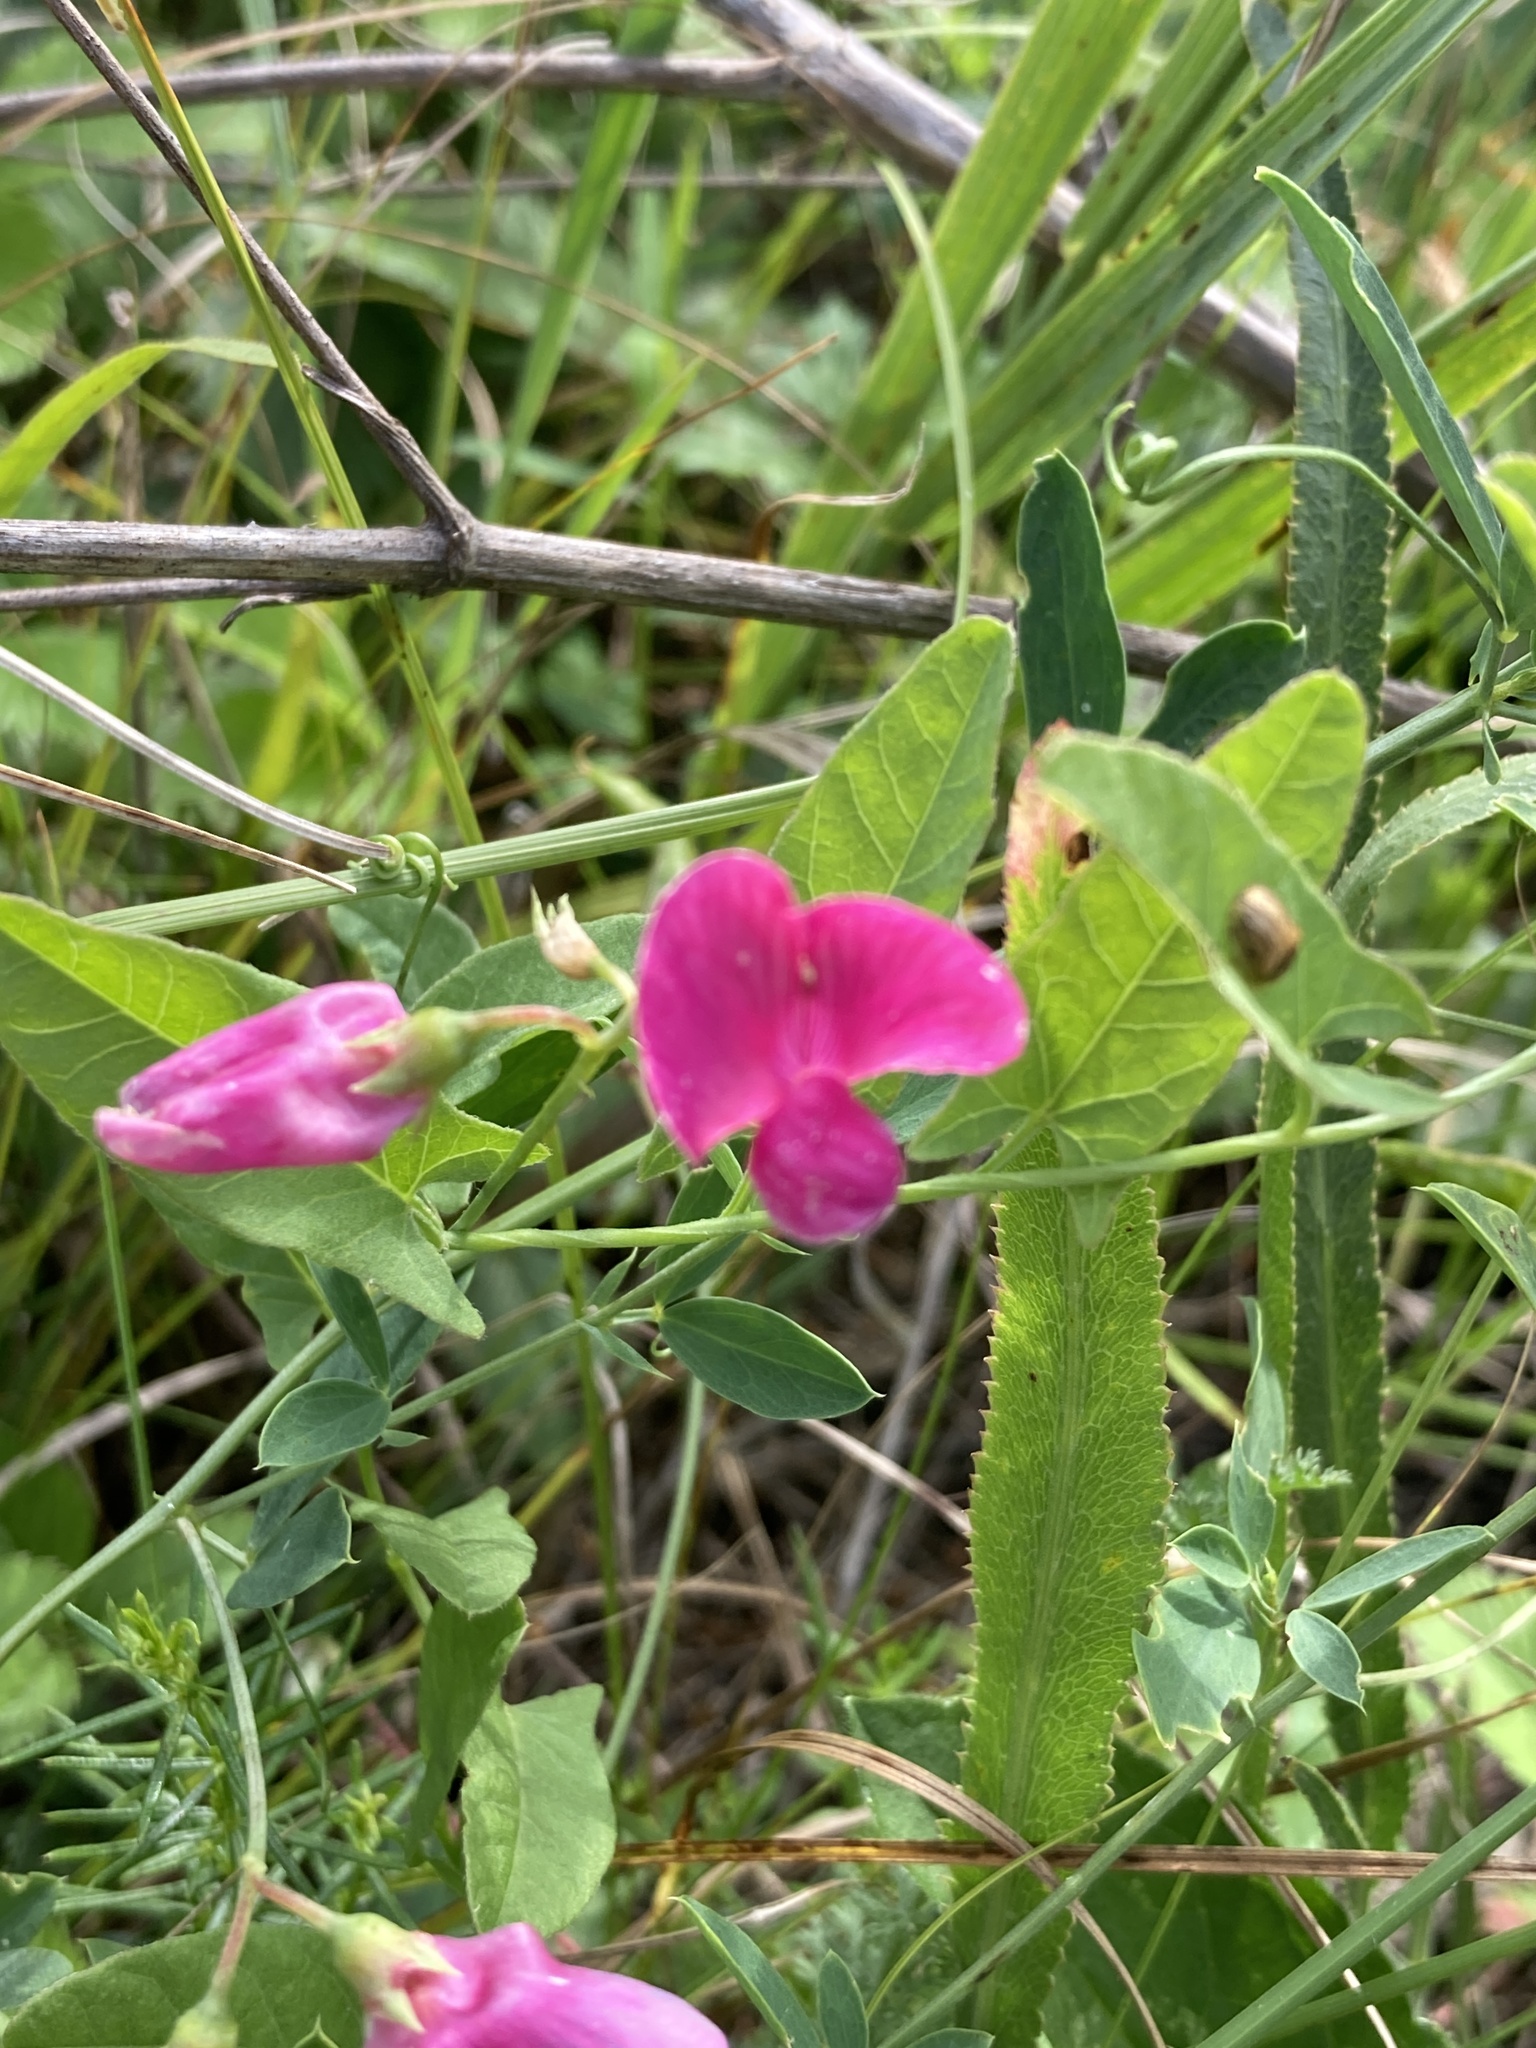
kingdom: Plantae
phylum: Tracheophyta
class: Magnoliopsida
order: Fabales
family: Fabaceae
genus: Lathyrus
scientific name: Lathyrus tuberosus
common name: Tuberous pea
